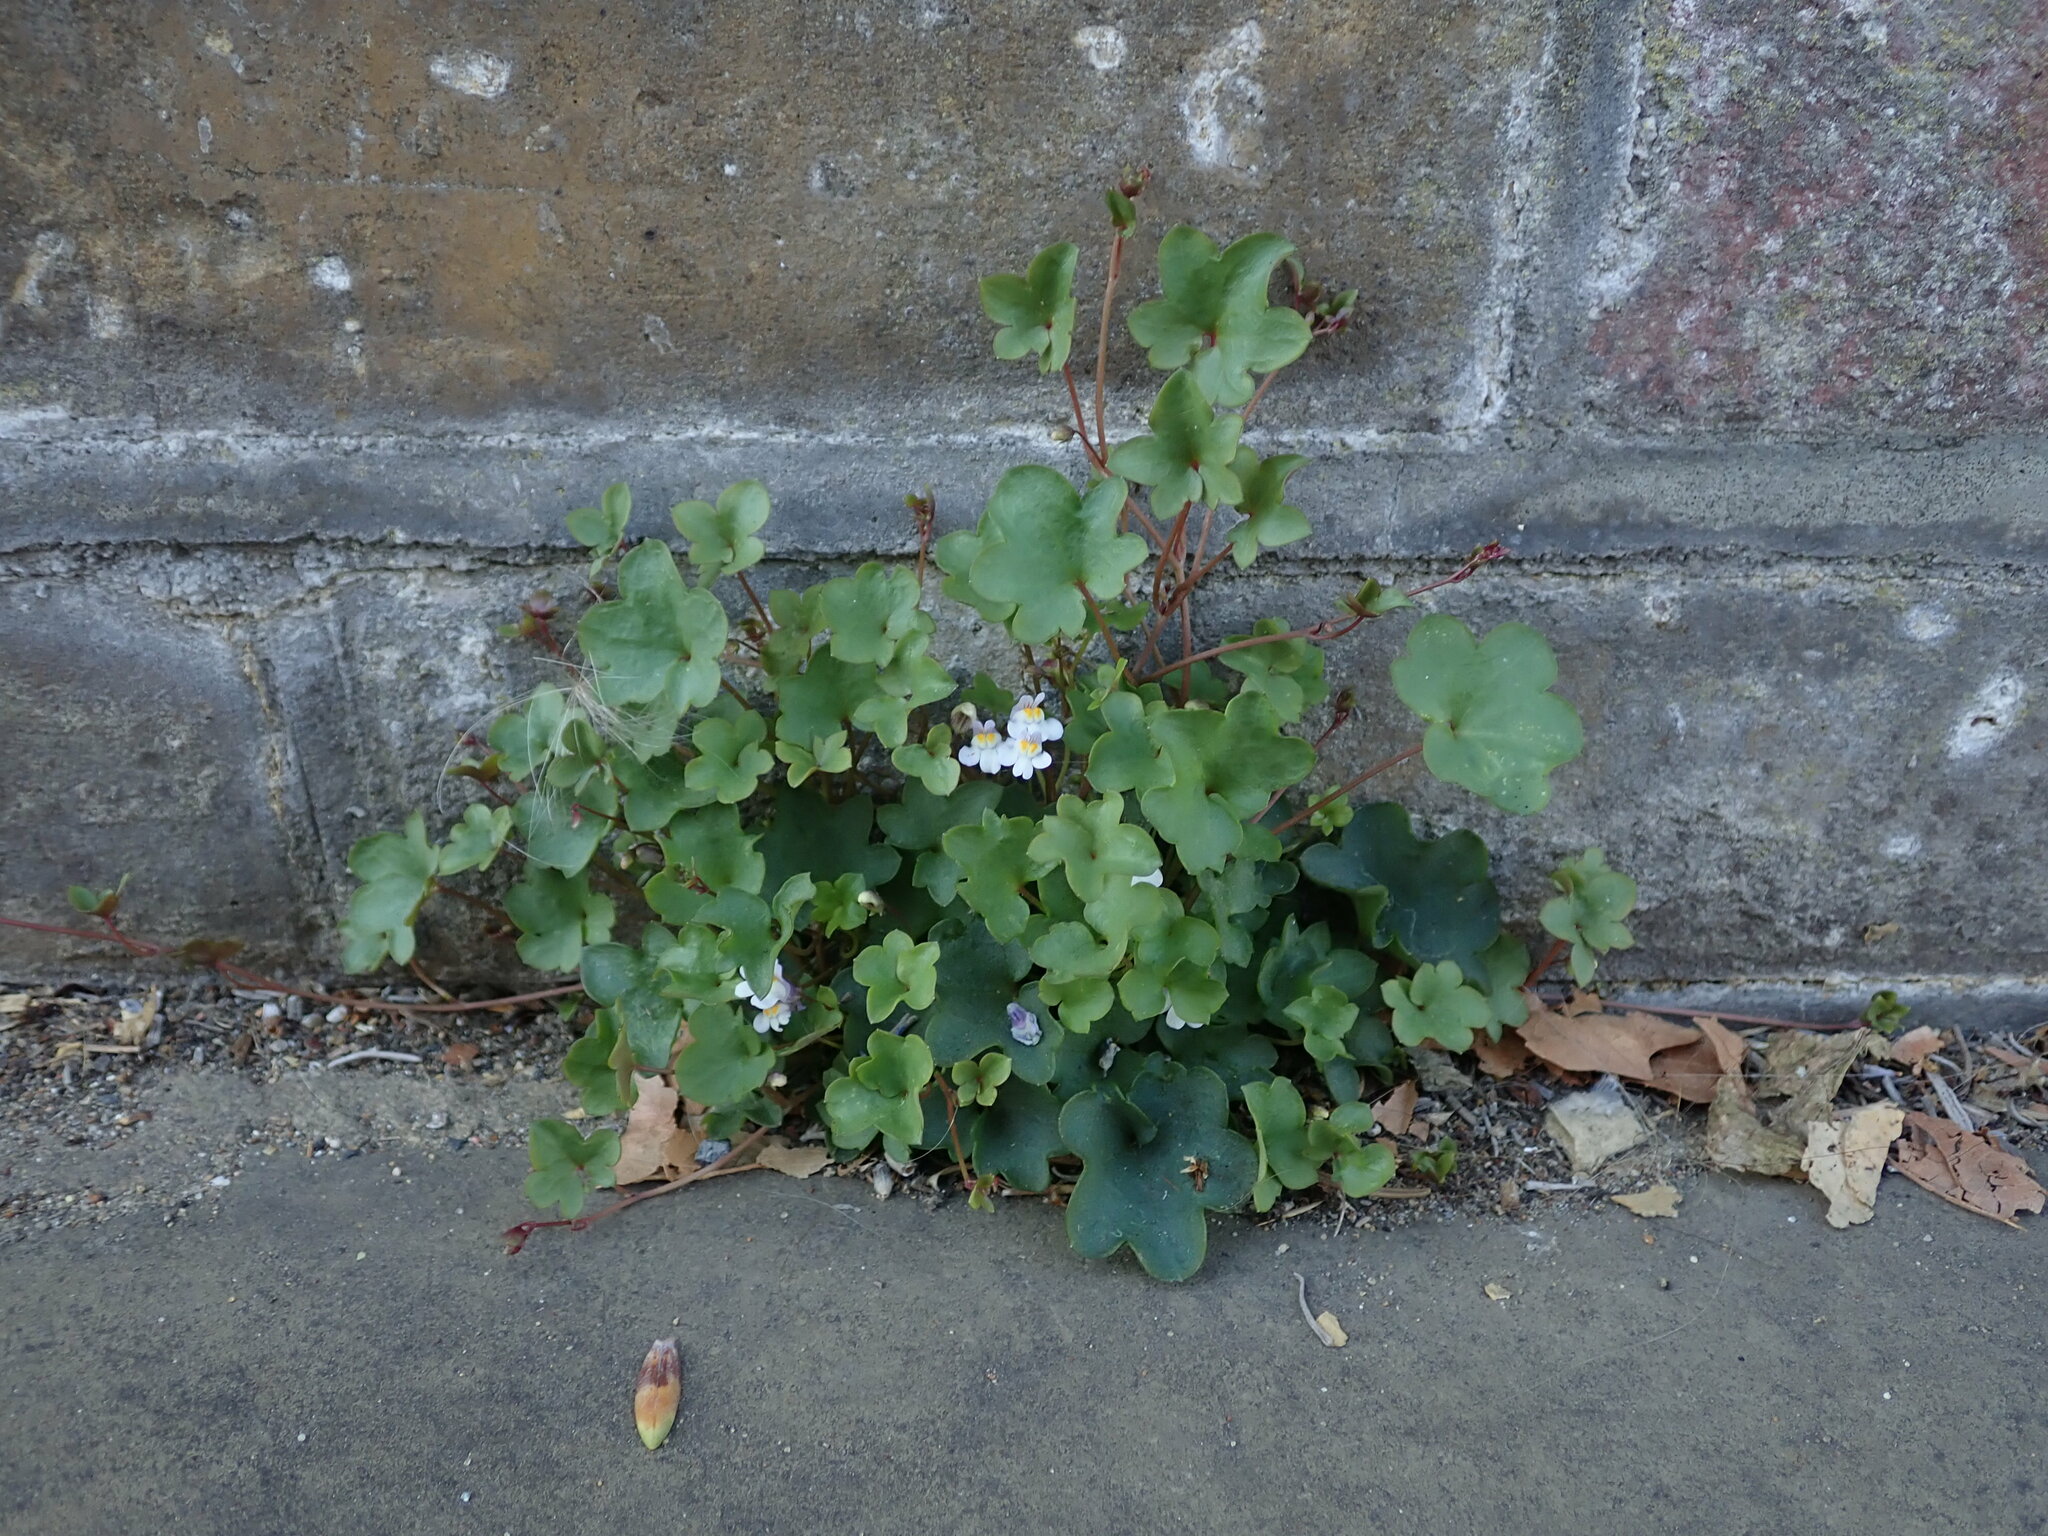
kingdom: Plantae
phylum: Tracheophyta
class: Magnoliopsida
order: Lamiales
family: Plantaginaceae
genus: Cymbalaria
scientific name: Cymbalaria muralis
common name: Ivy-leaved toadflax
